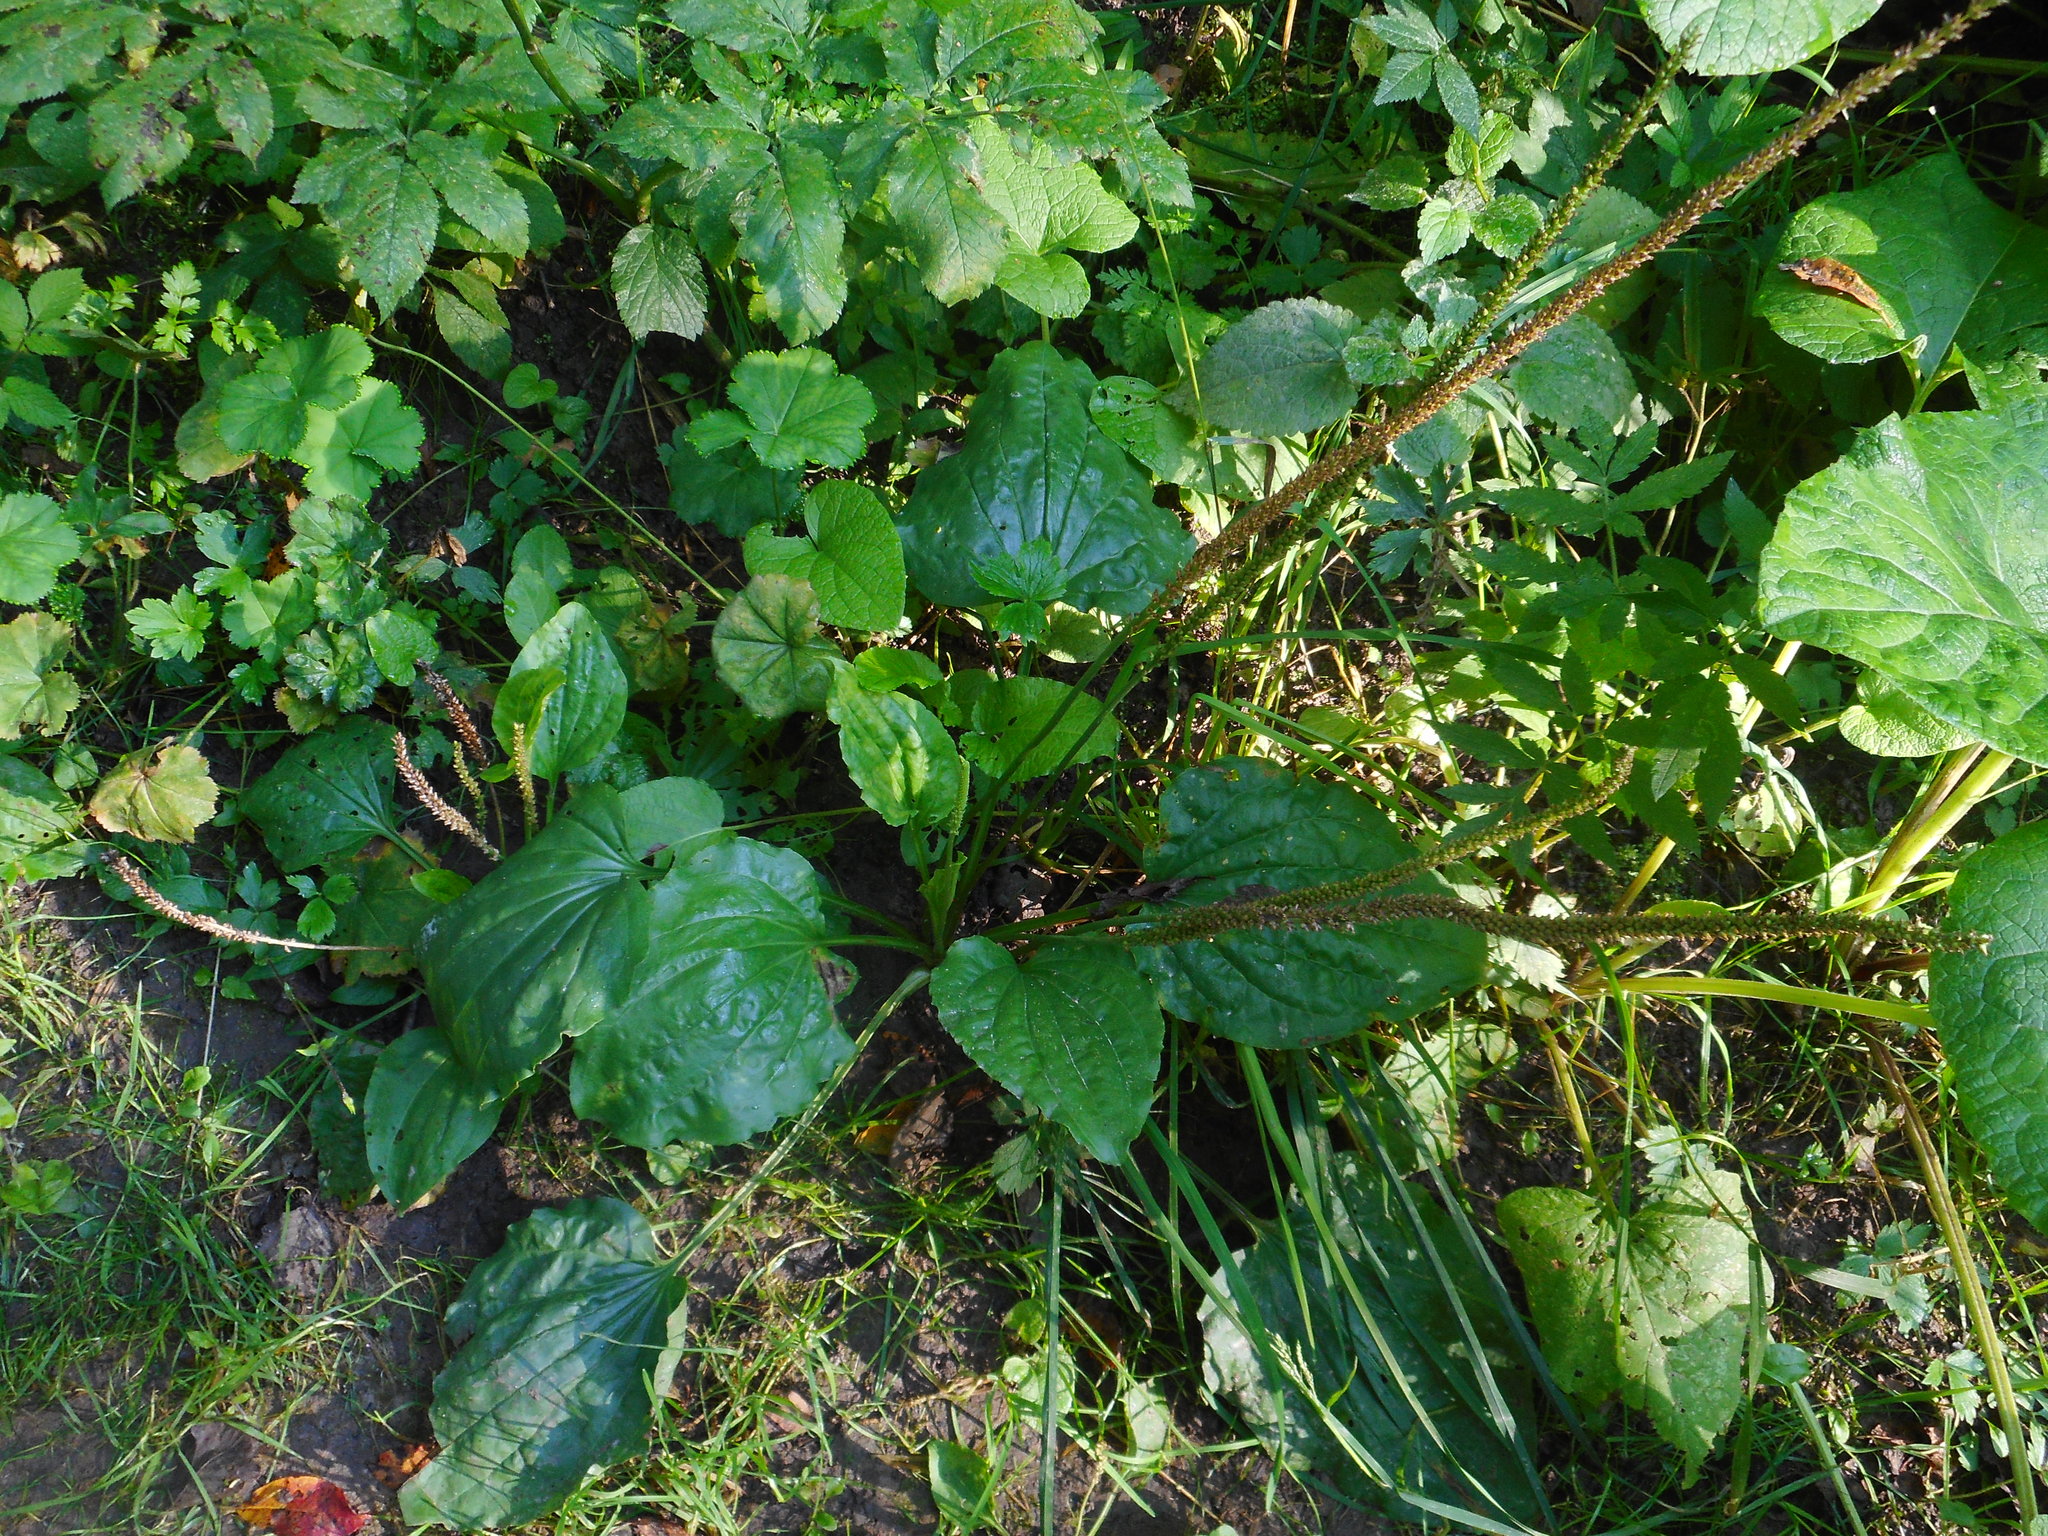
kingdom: Plantae
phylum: Tracheophyta
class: Magnoliopsida
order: Lamiales
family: Plantaginaceae
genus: Plantago
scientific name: Plantago major
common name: Common plantain
